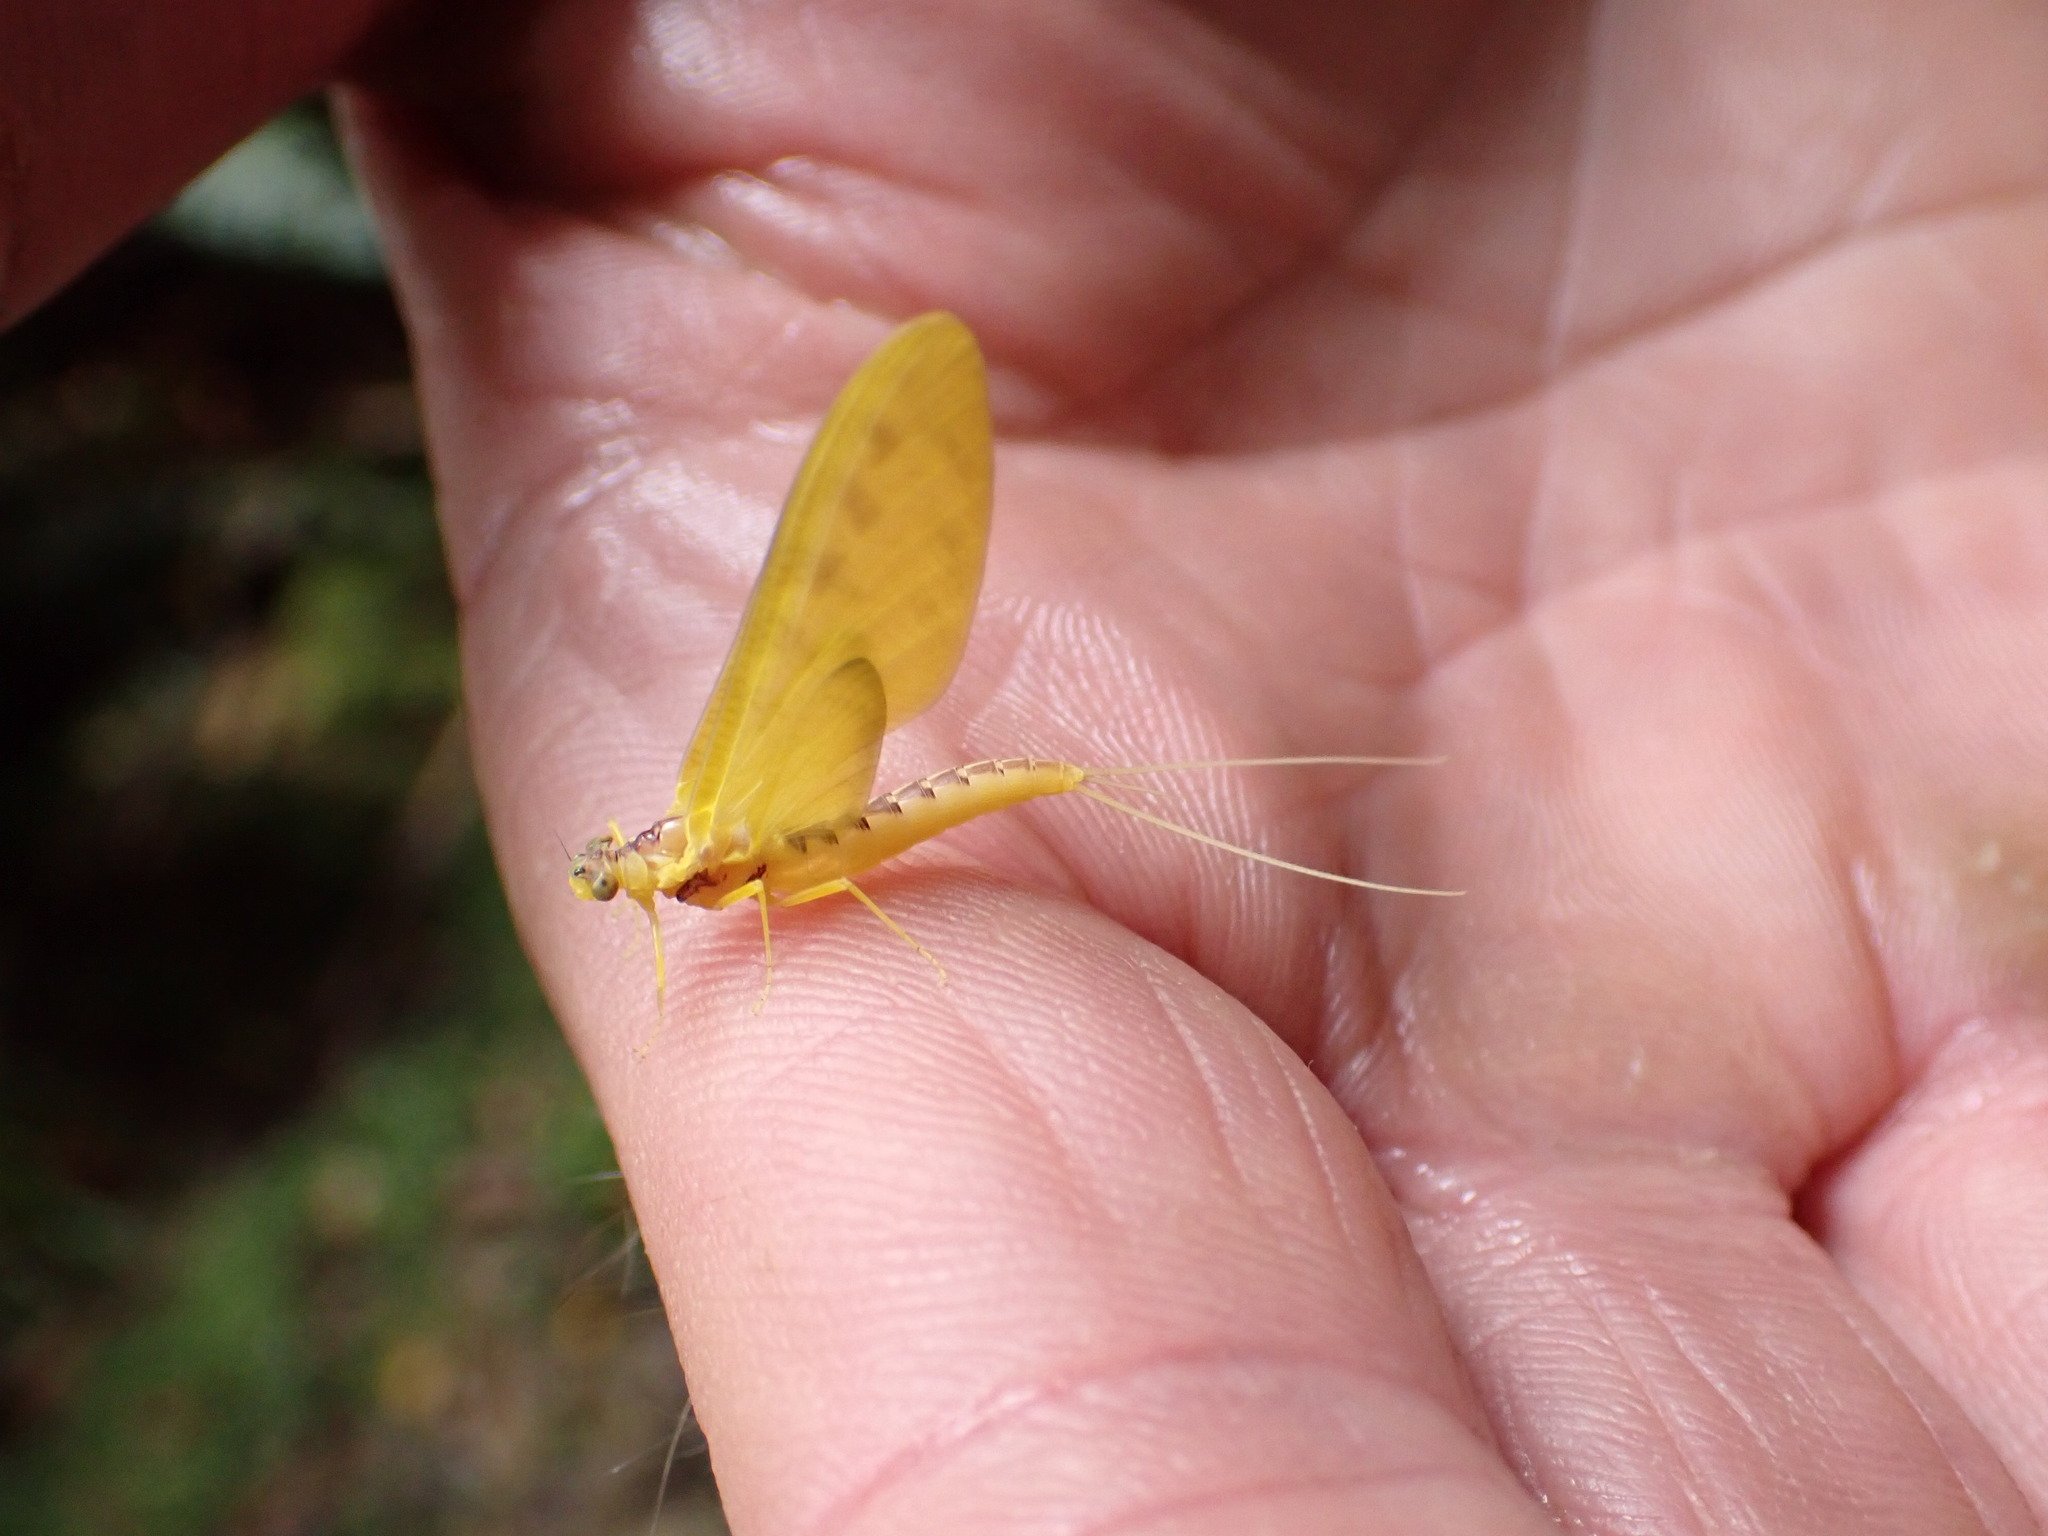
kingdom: Animalia
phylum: Arthropoda
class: Insecta
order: Ephemeroptera
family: Ameletopsidae
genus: Ameletopsis
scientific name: Ameletopsis perscitus
